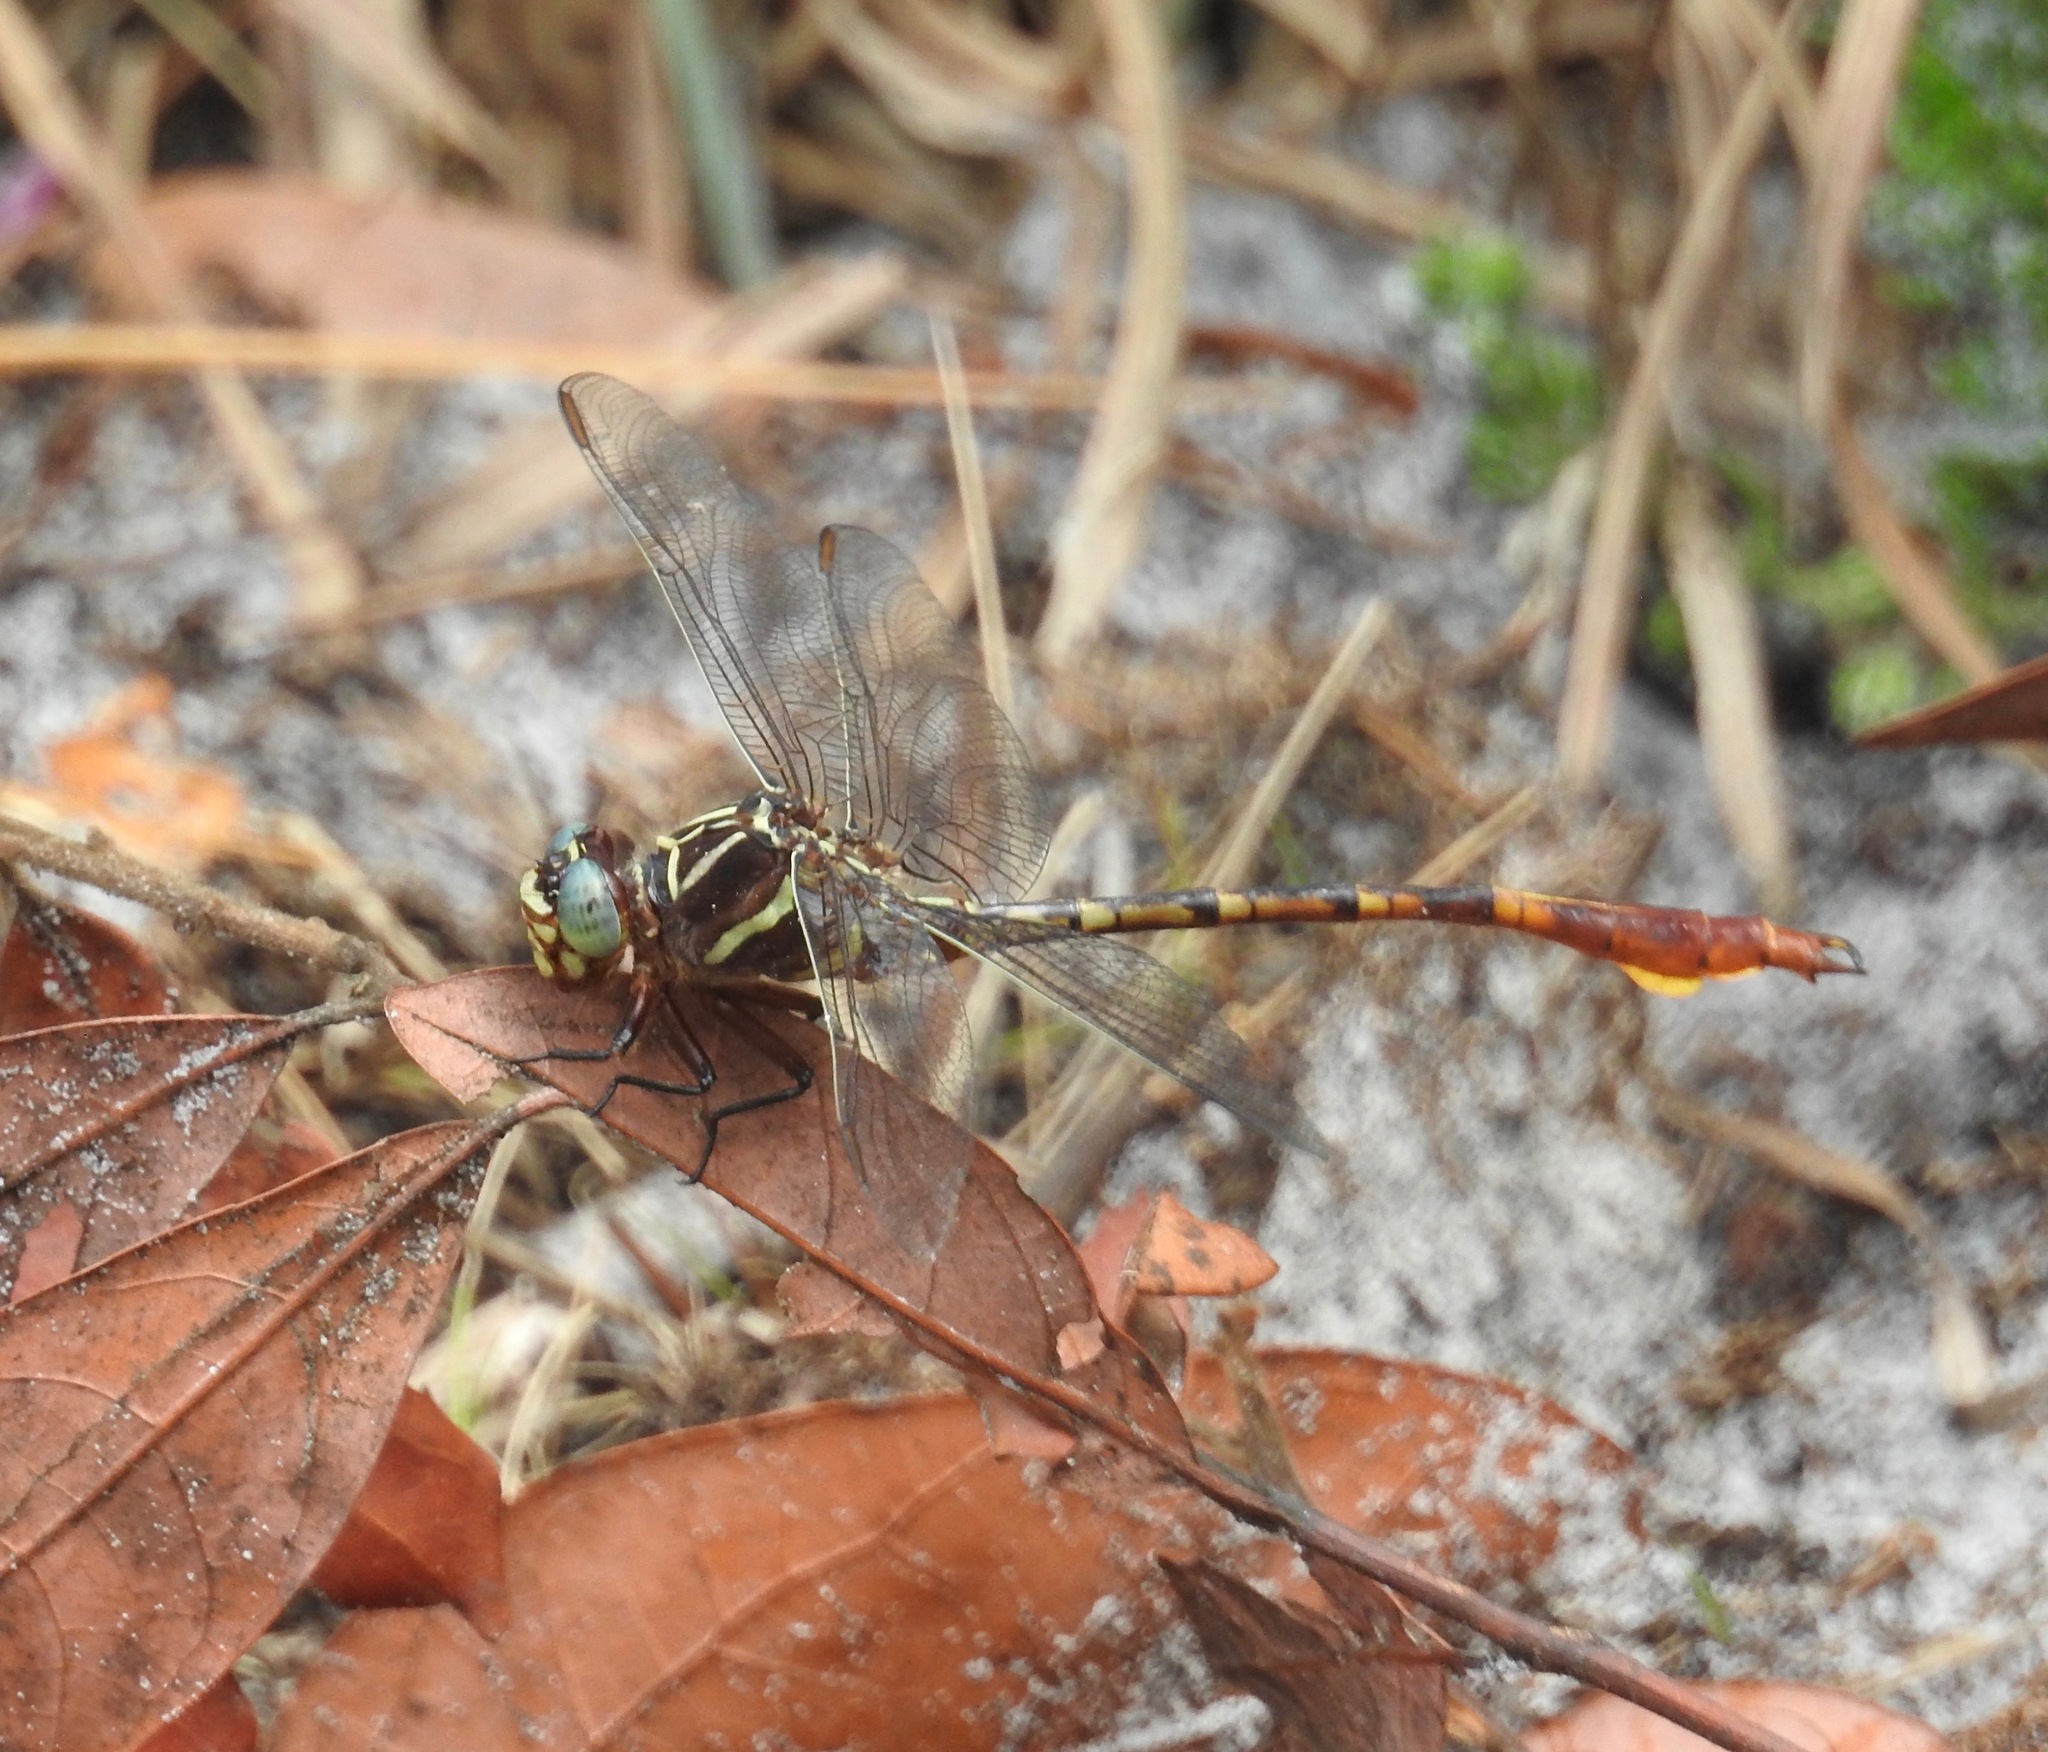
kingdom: Animalia
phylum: Arthropoda
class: Insecta
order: Odonata
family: Gomphidae
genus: Aphylla
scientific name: Aphylla williamsoni
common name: Two-striped forceptail
